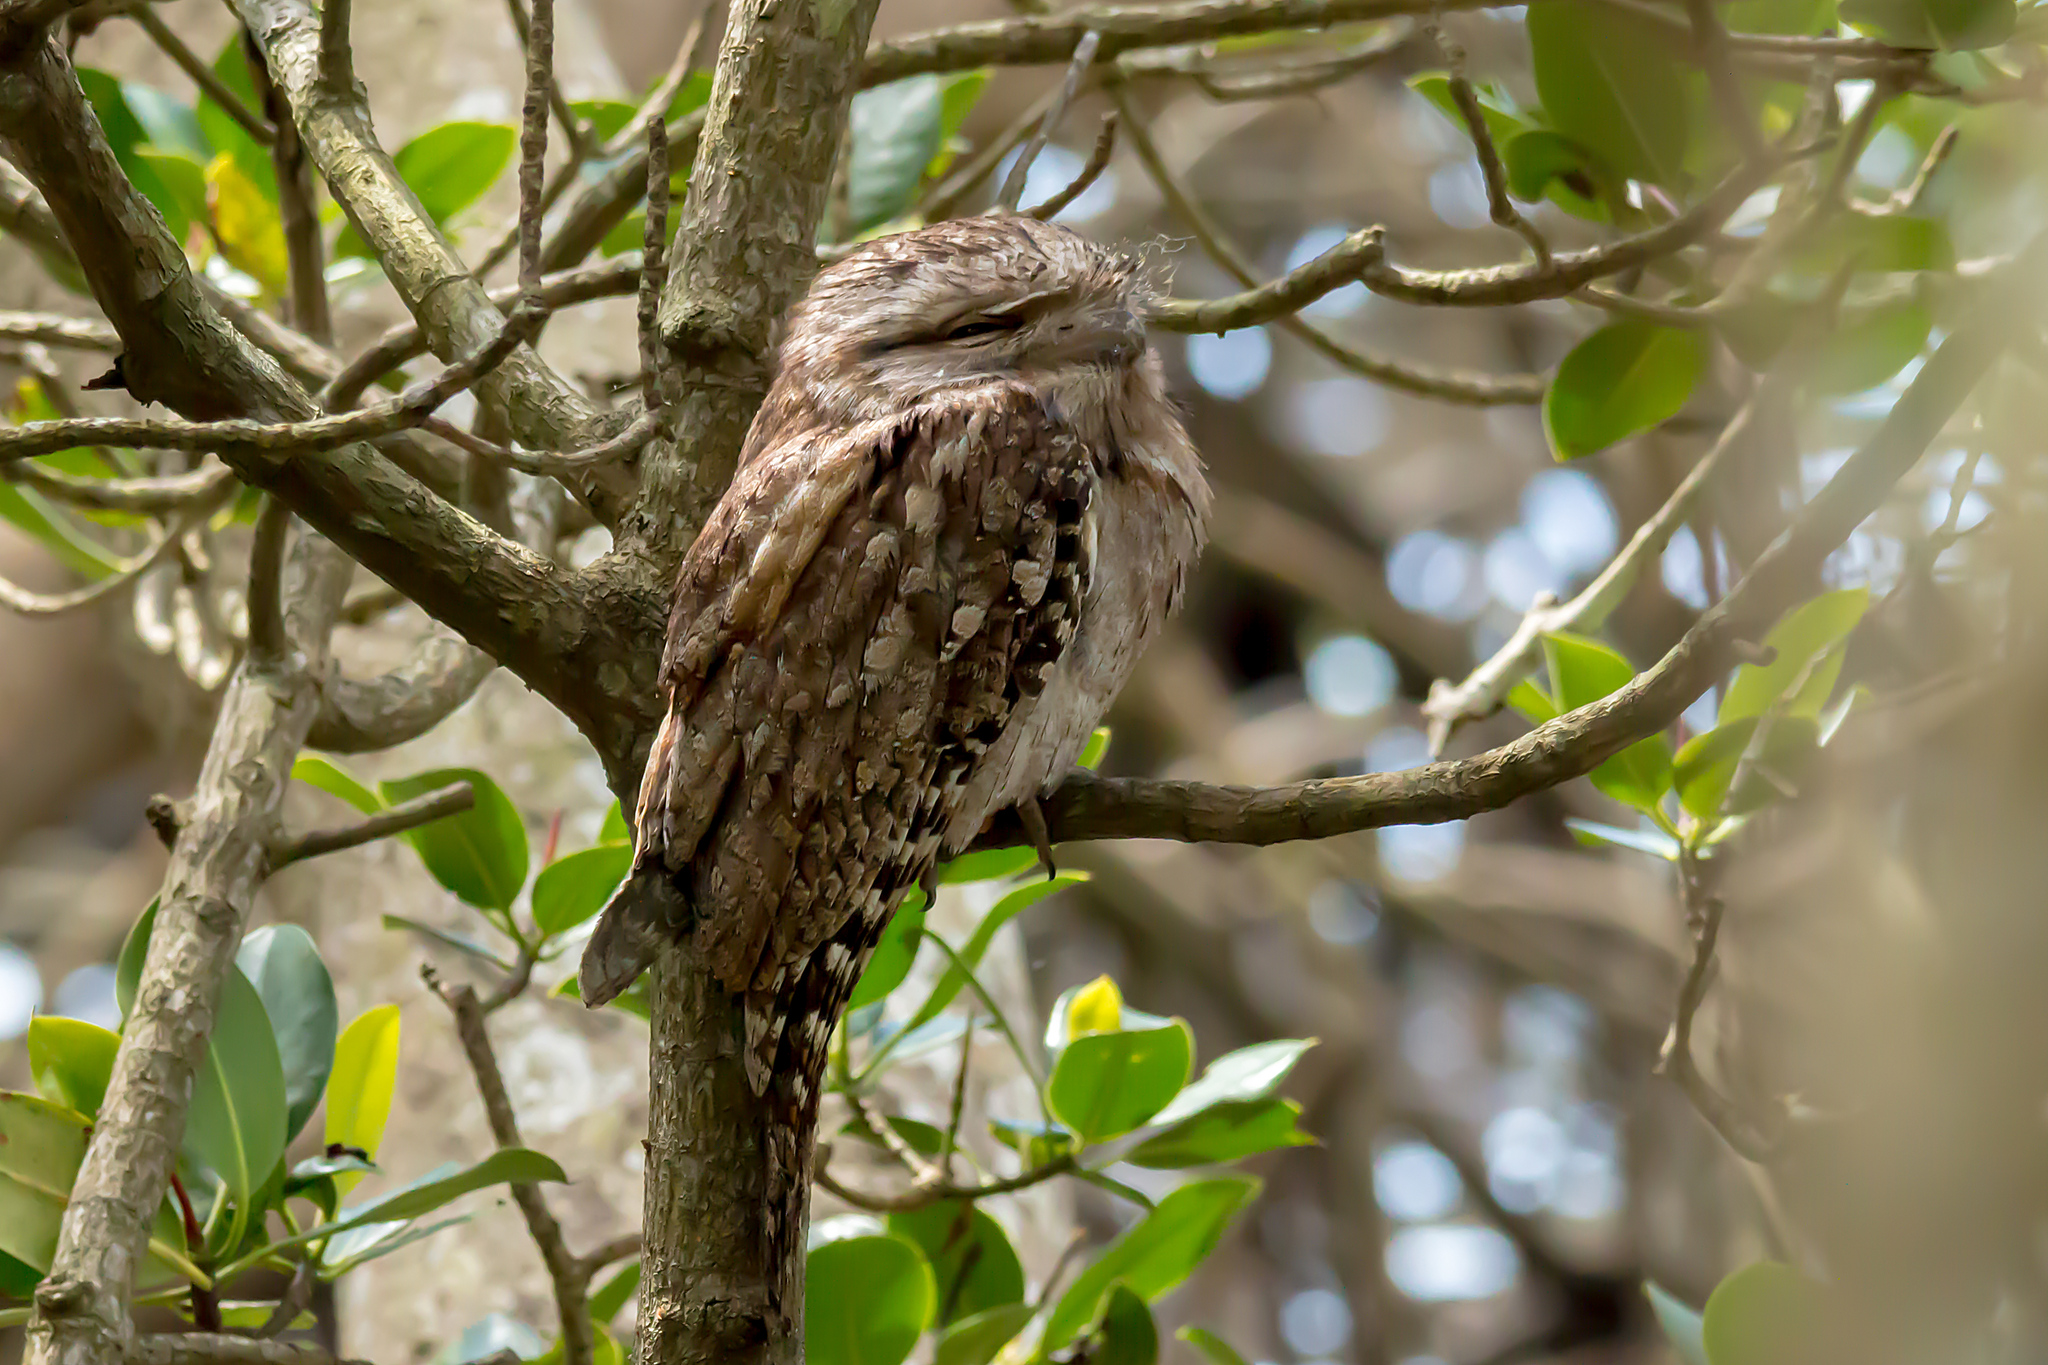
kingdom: Animalia
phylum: Chordata
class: Aves
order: Caprimulgiformes
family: Podargidae
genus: Podargus
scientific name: Podargus strigoides
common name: Tawny frogmouth
